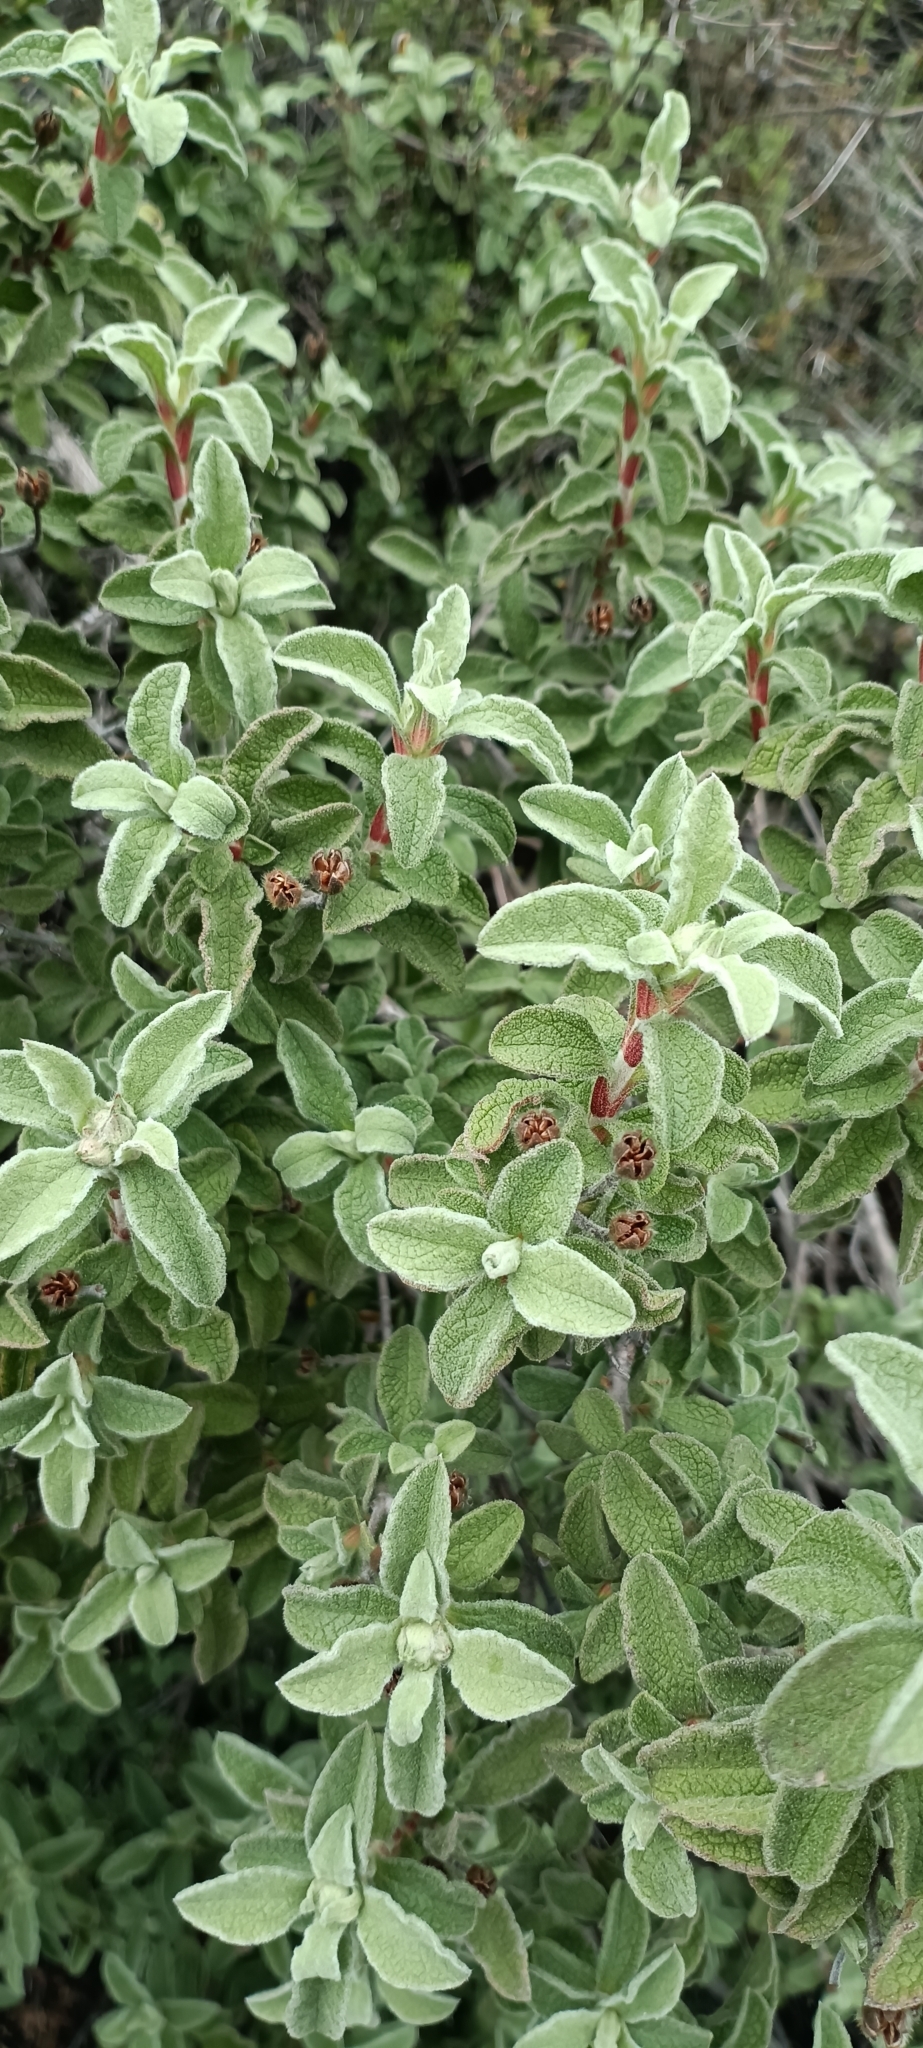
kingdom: Plantae
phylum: Tracheophyta
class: Magnoliopsida
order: Malvales
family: Cistaceae
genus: Cistus
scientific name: Cistus creticus
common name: Cretan rockrose
